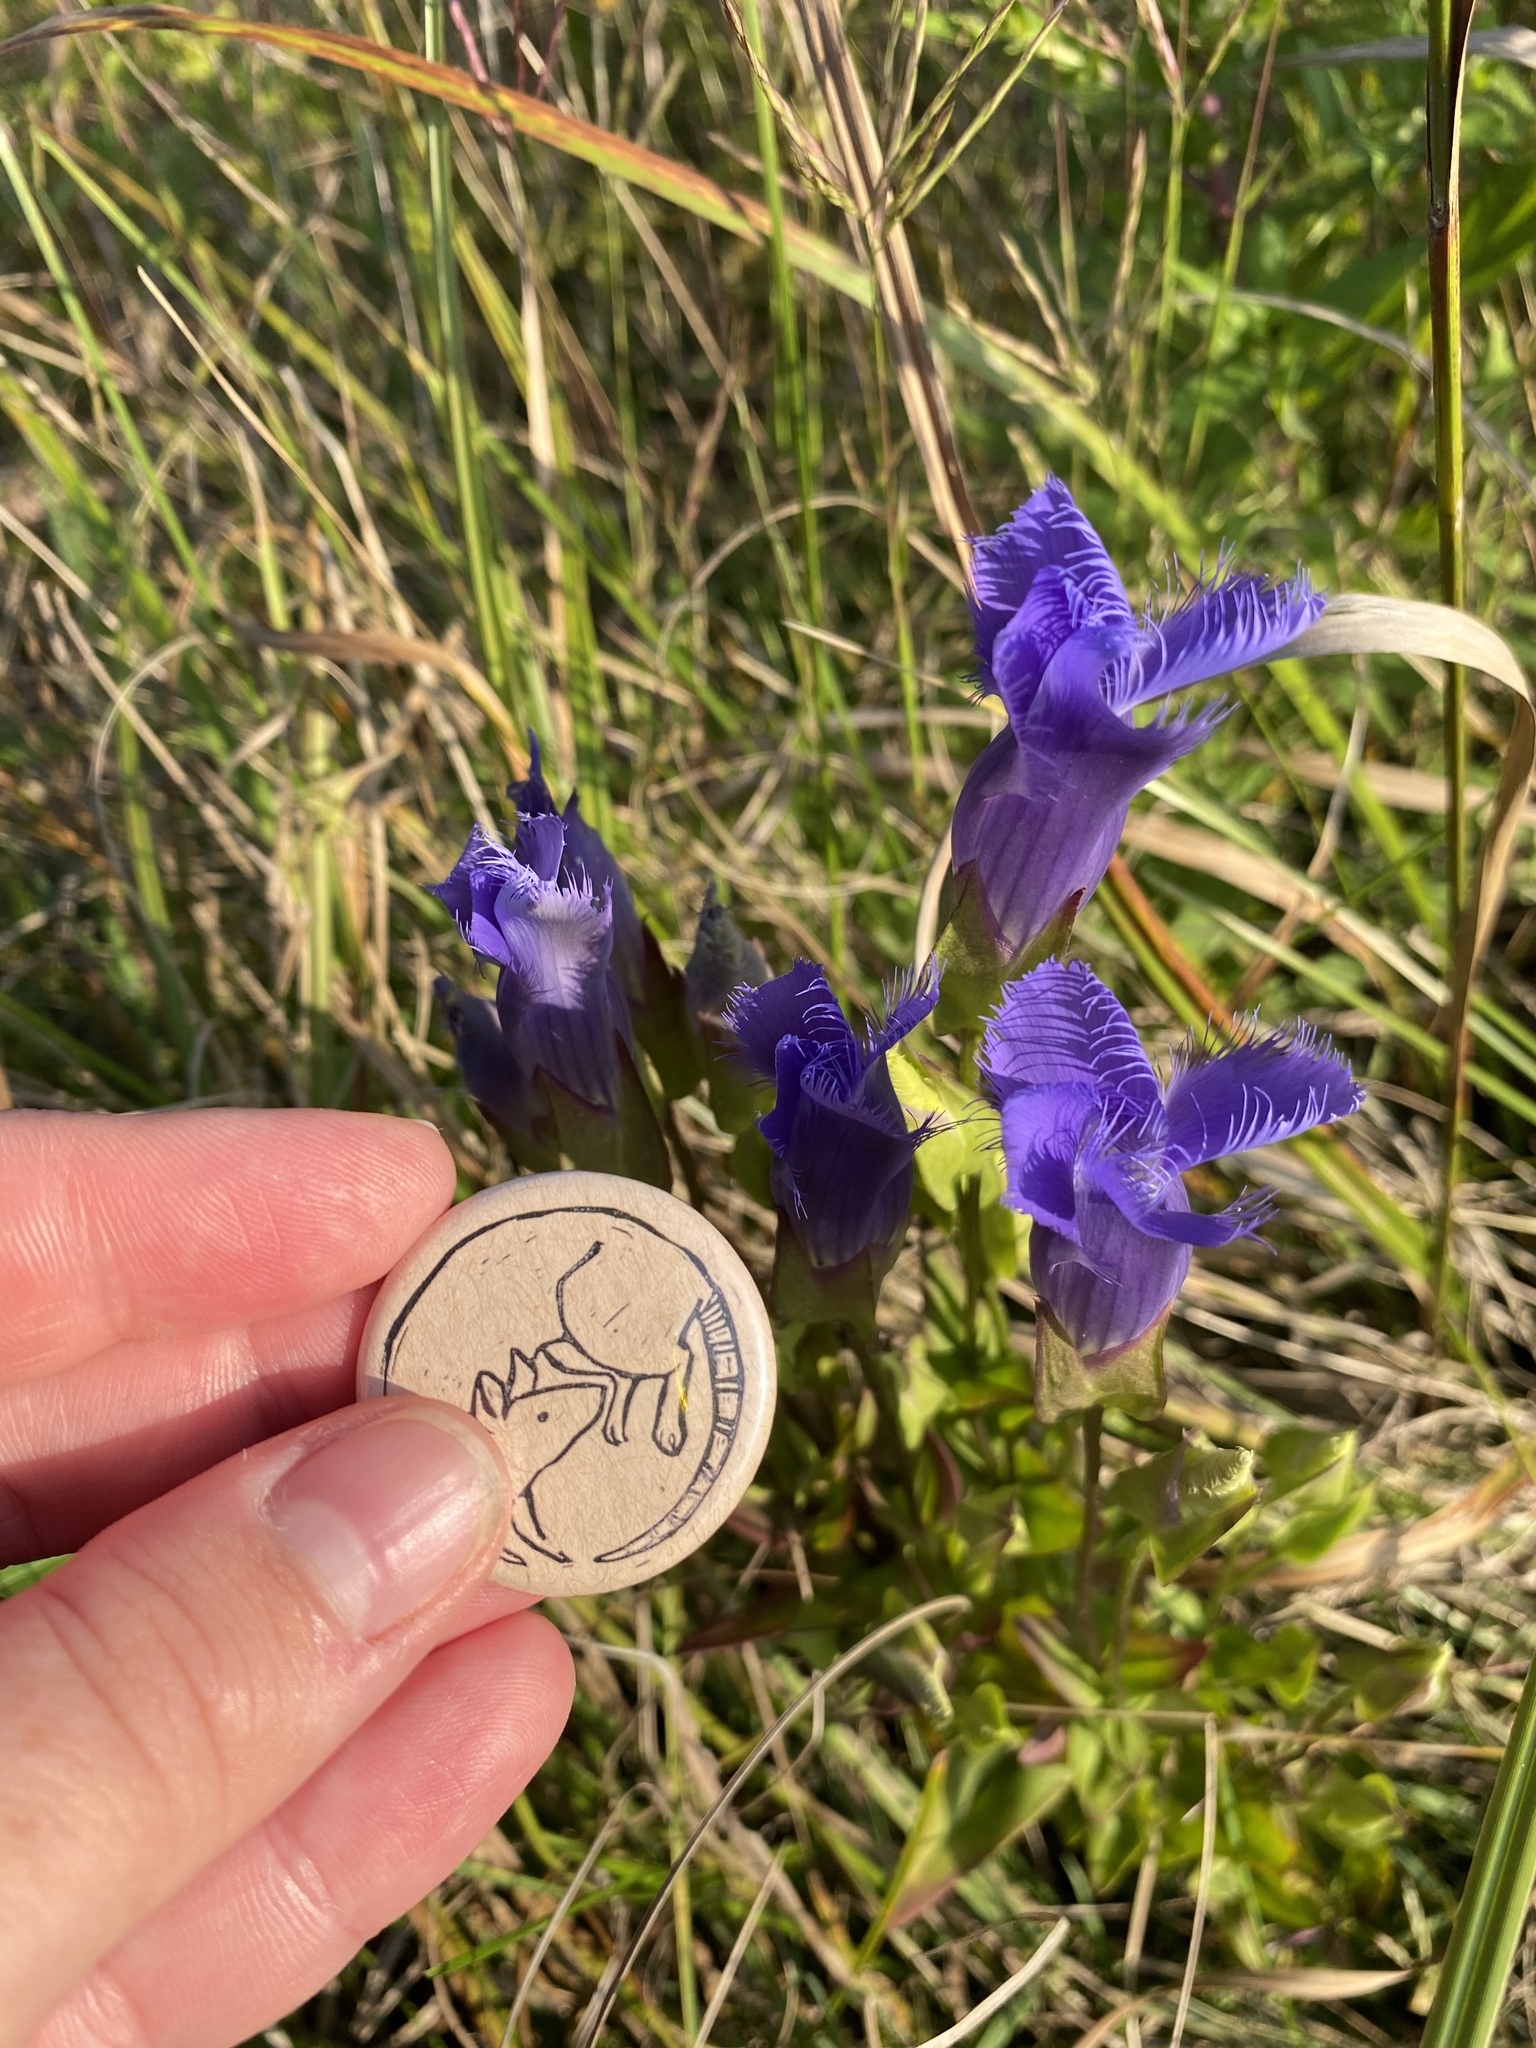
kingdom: Plantae
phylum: Tracheophyta
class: Magnoliopsida
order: Gentianales
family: Gentianaceae
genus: Gentianopsis
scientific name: Gentianopsis crinita
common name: Fringed-gentian
